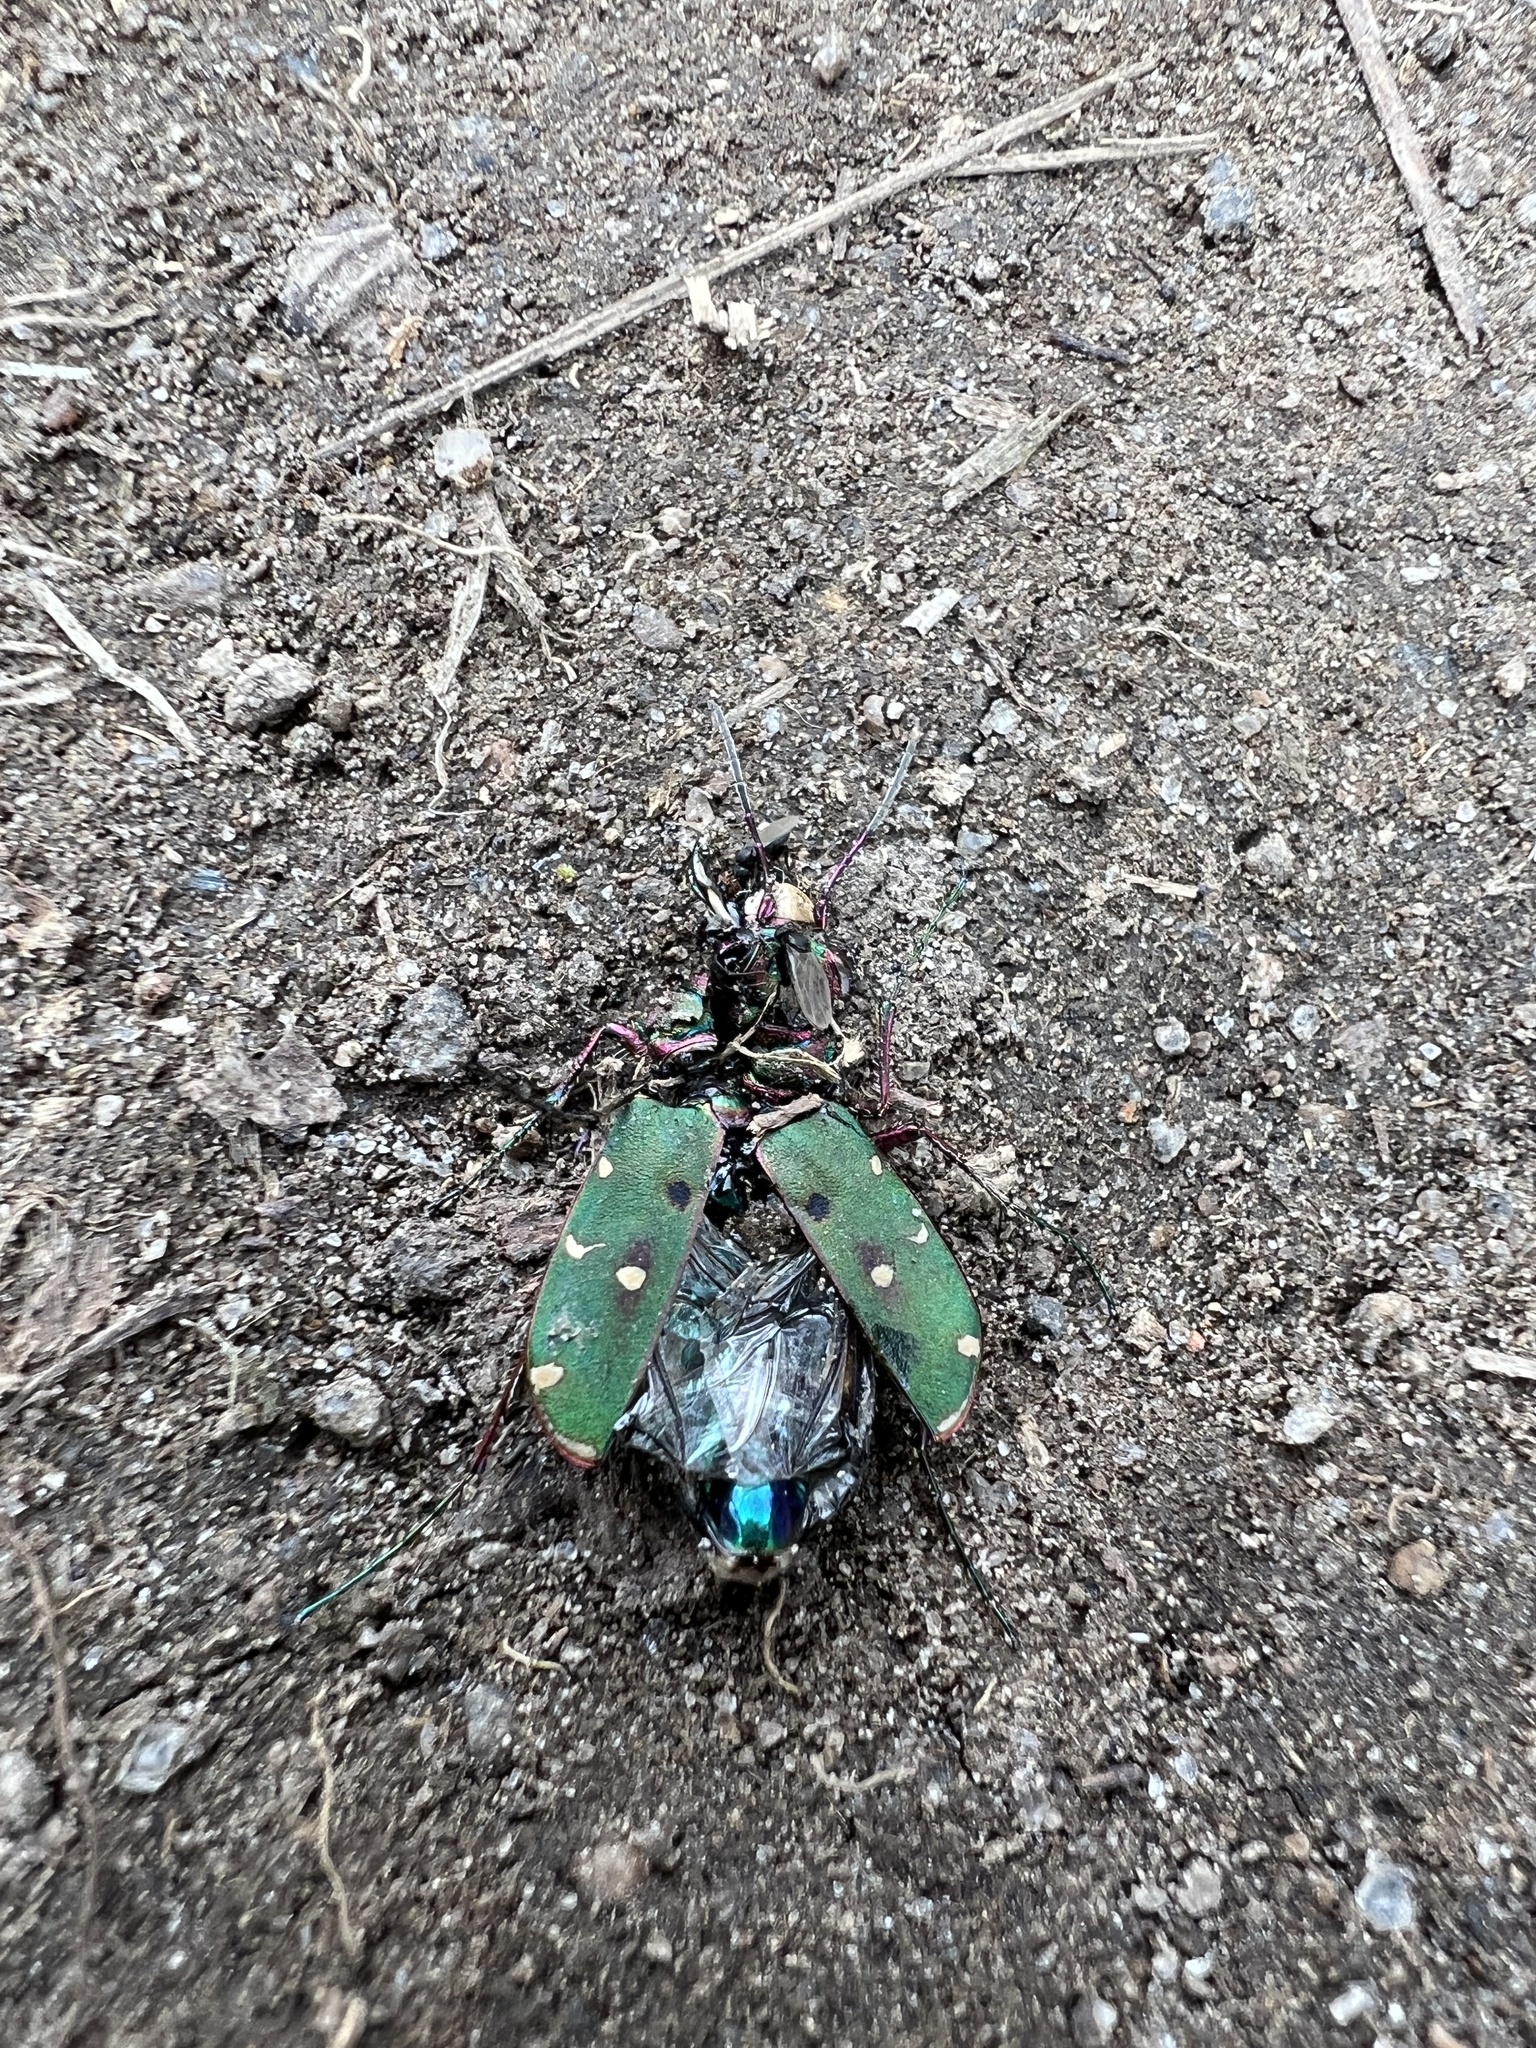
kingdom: Animalia
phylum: Arthropoda
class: Insecta
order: Coleoptera
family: Carabidae
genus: Cicindela
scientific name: Cicindela campestris
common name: Common tiger beetle
